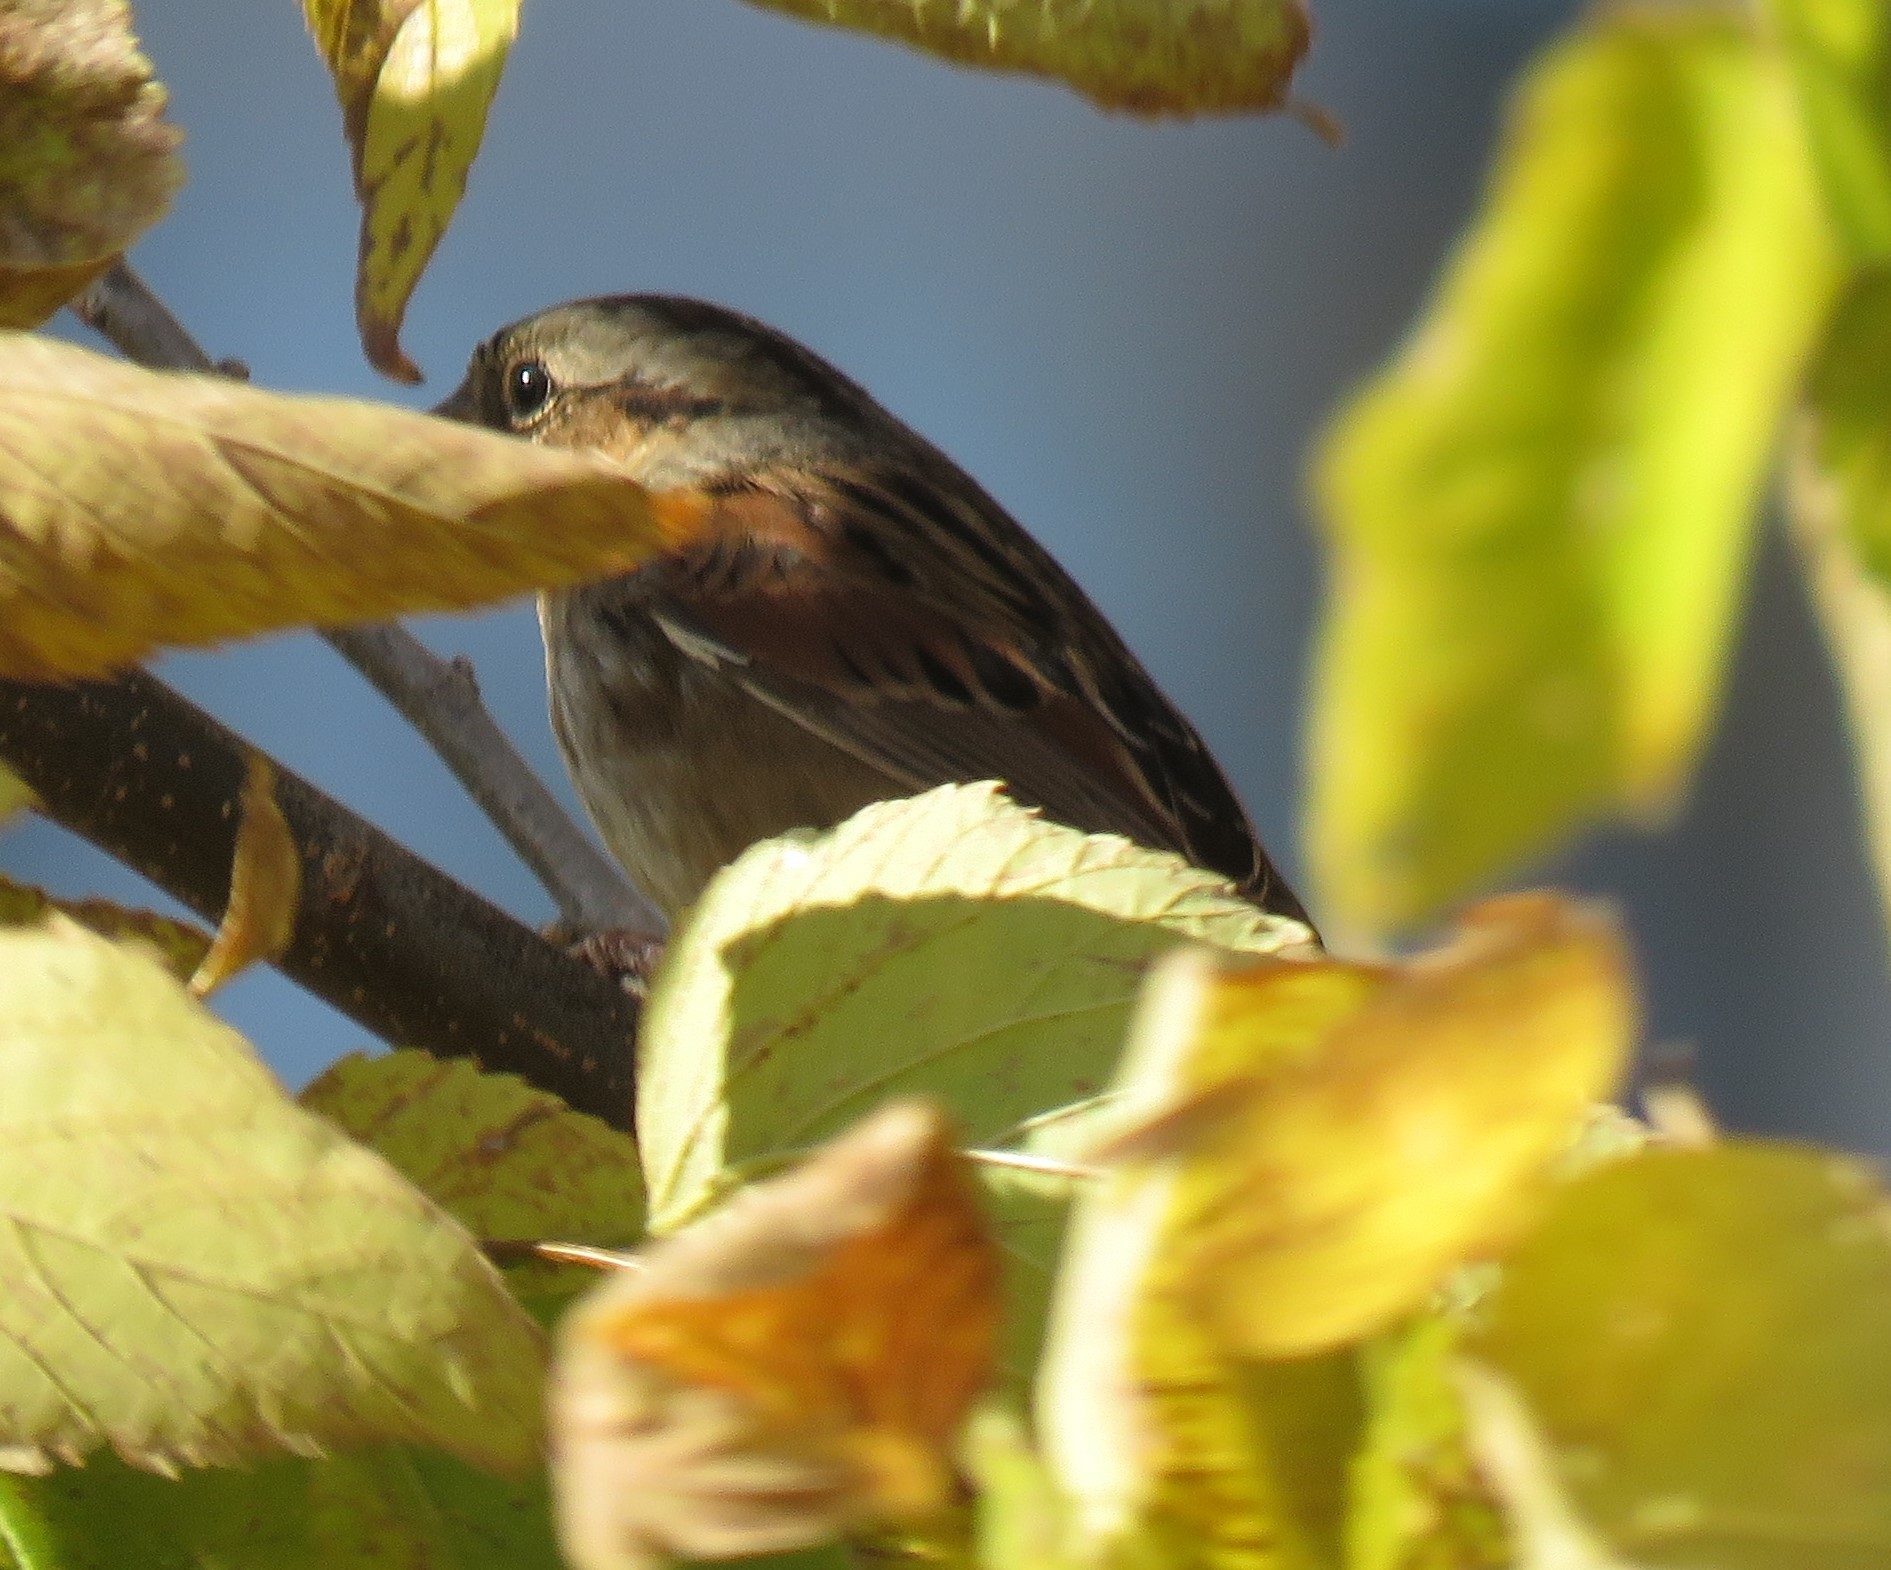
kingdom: Animalia
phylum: Chordata
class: Aves
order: Passeriformes
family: Passerellidae
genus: Melospiza
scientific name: Melospiza georgiana
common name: Swamp sparrow
